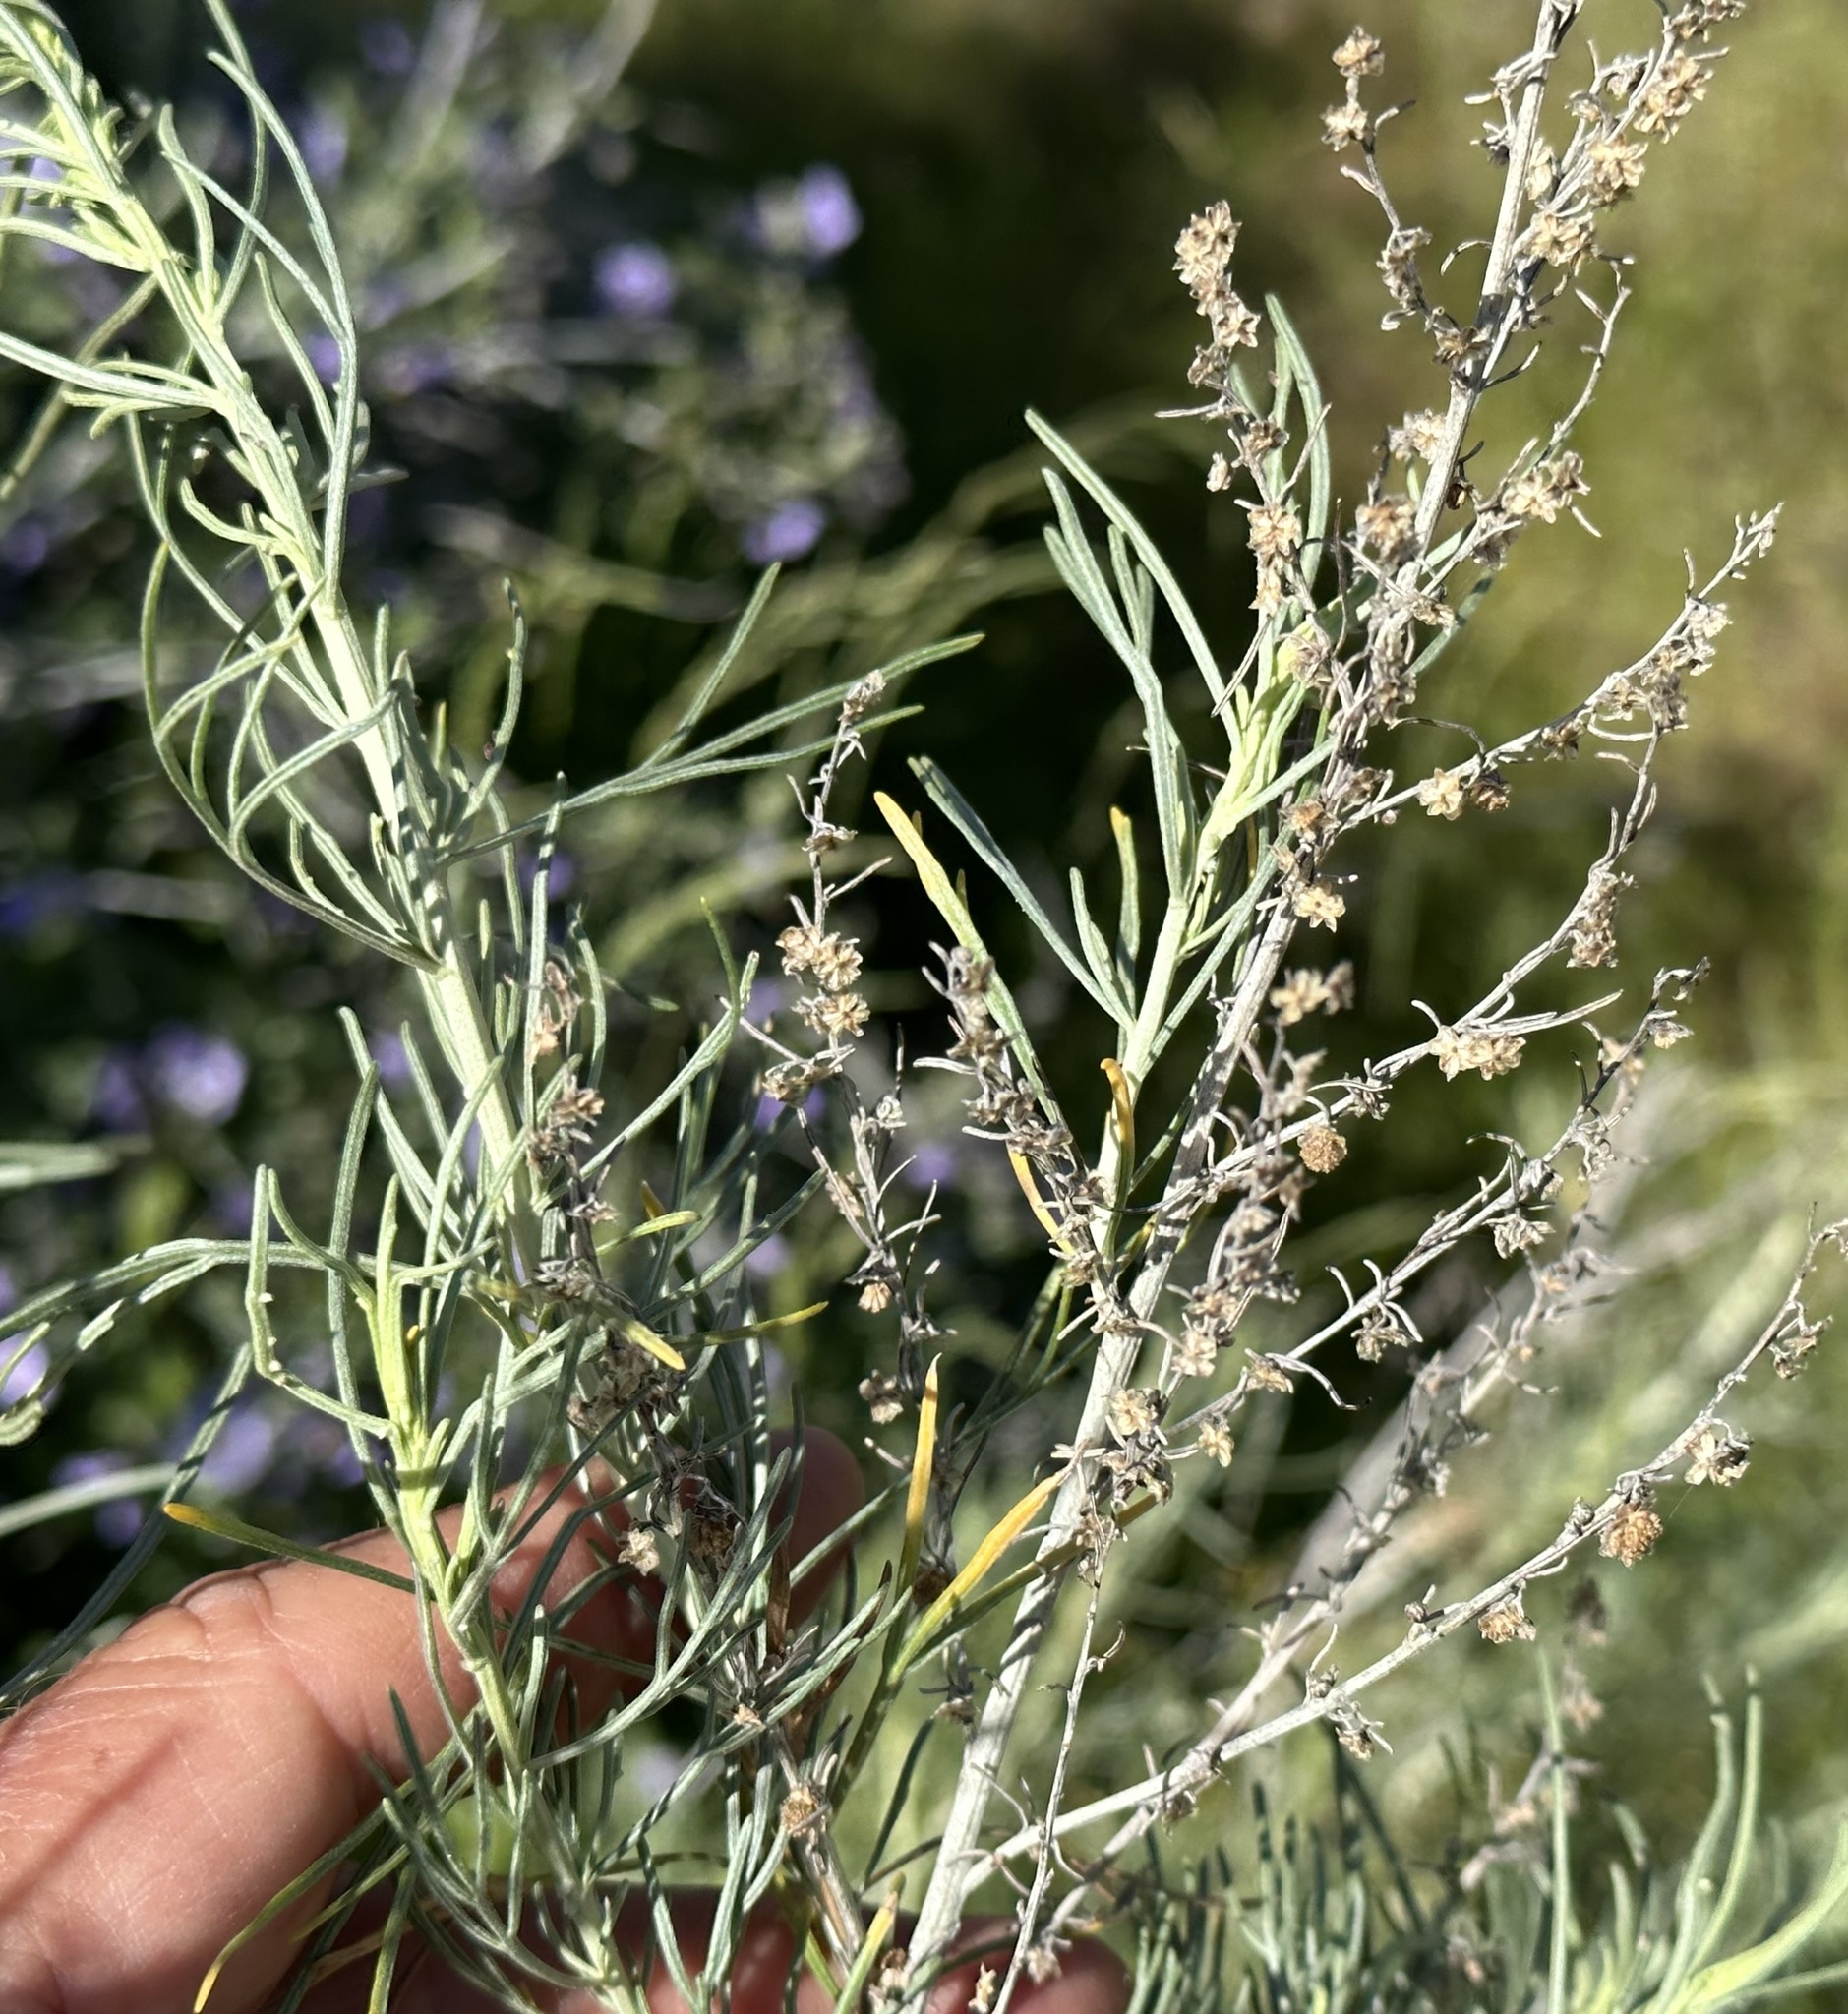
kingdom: Plantae
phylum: Tracheophyta
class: Magnoliopsida
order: Asterales
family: Asteraceae
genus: Artemisia
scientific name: Artemisia californica
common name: California sagebrush
